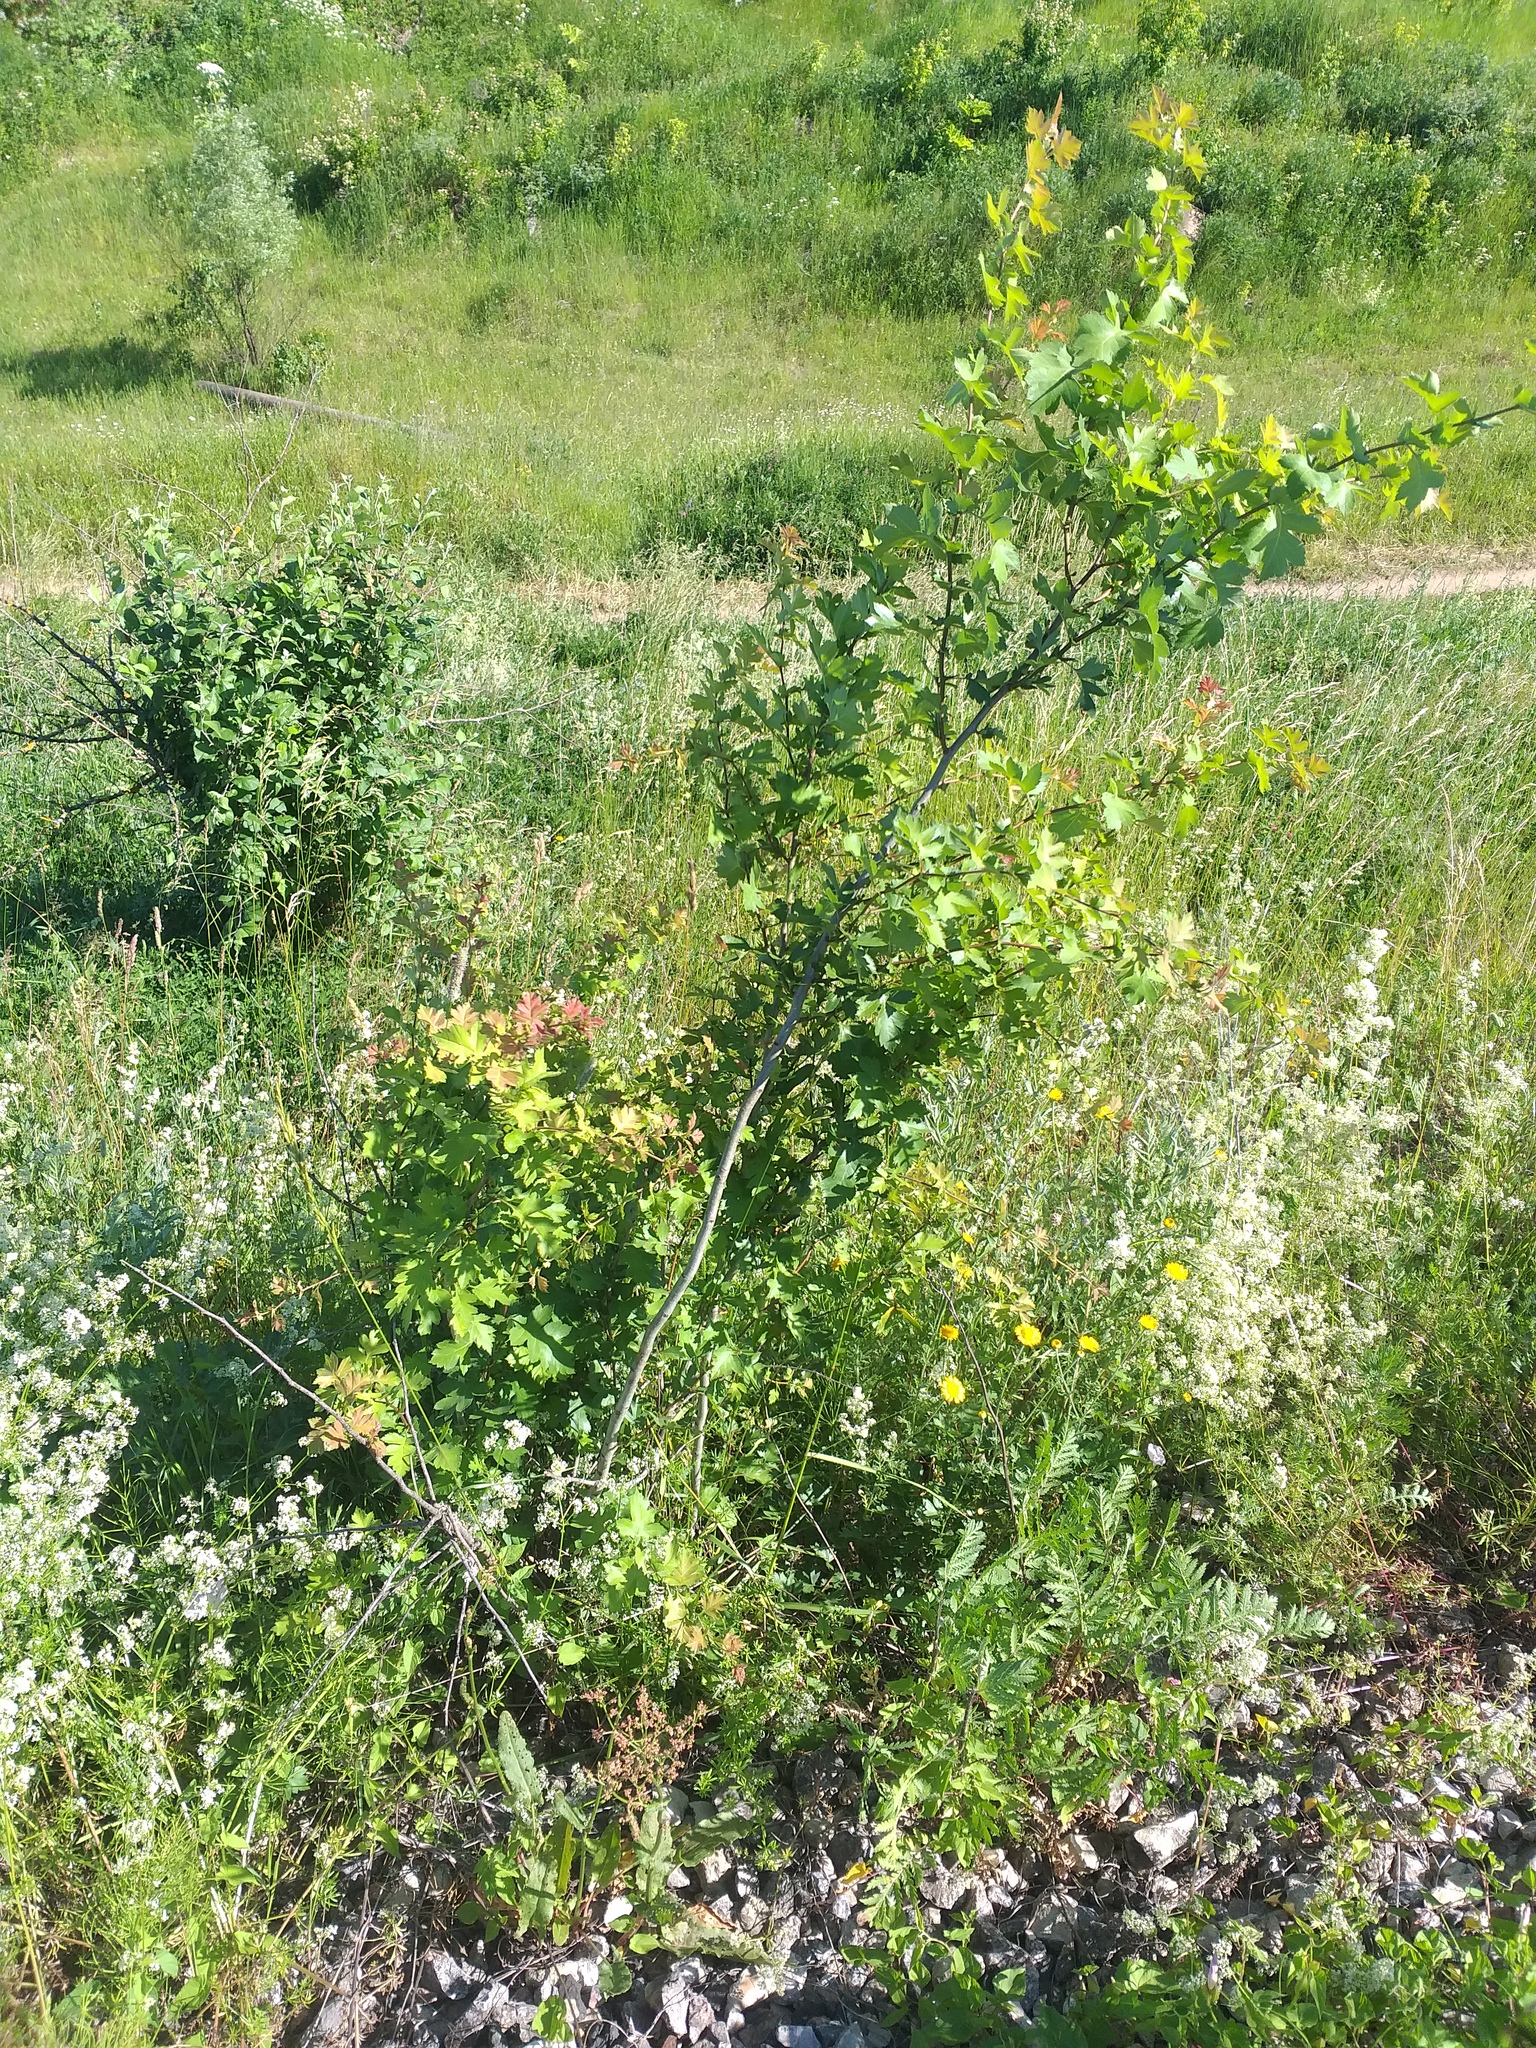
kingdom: Plantae
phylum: Tracheophyta
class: Magnoliopsida
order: Rosales
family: Rosaceae
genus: Crataegus
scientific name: Crataegus monogyna
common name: Hawthorn
